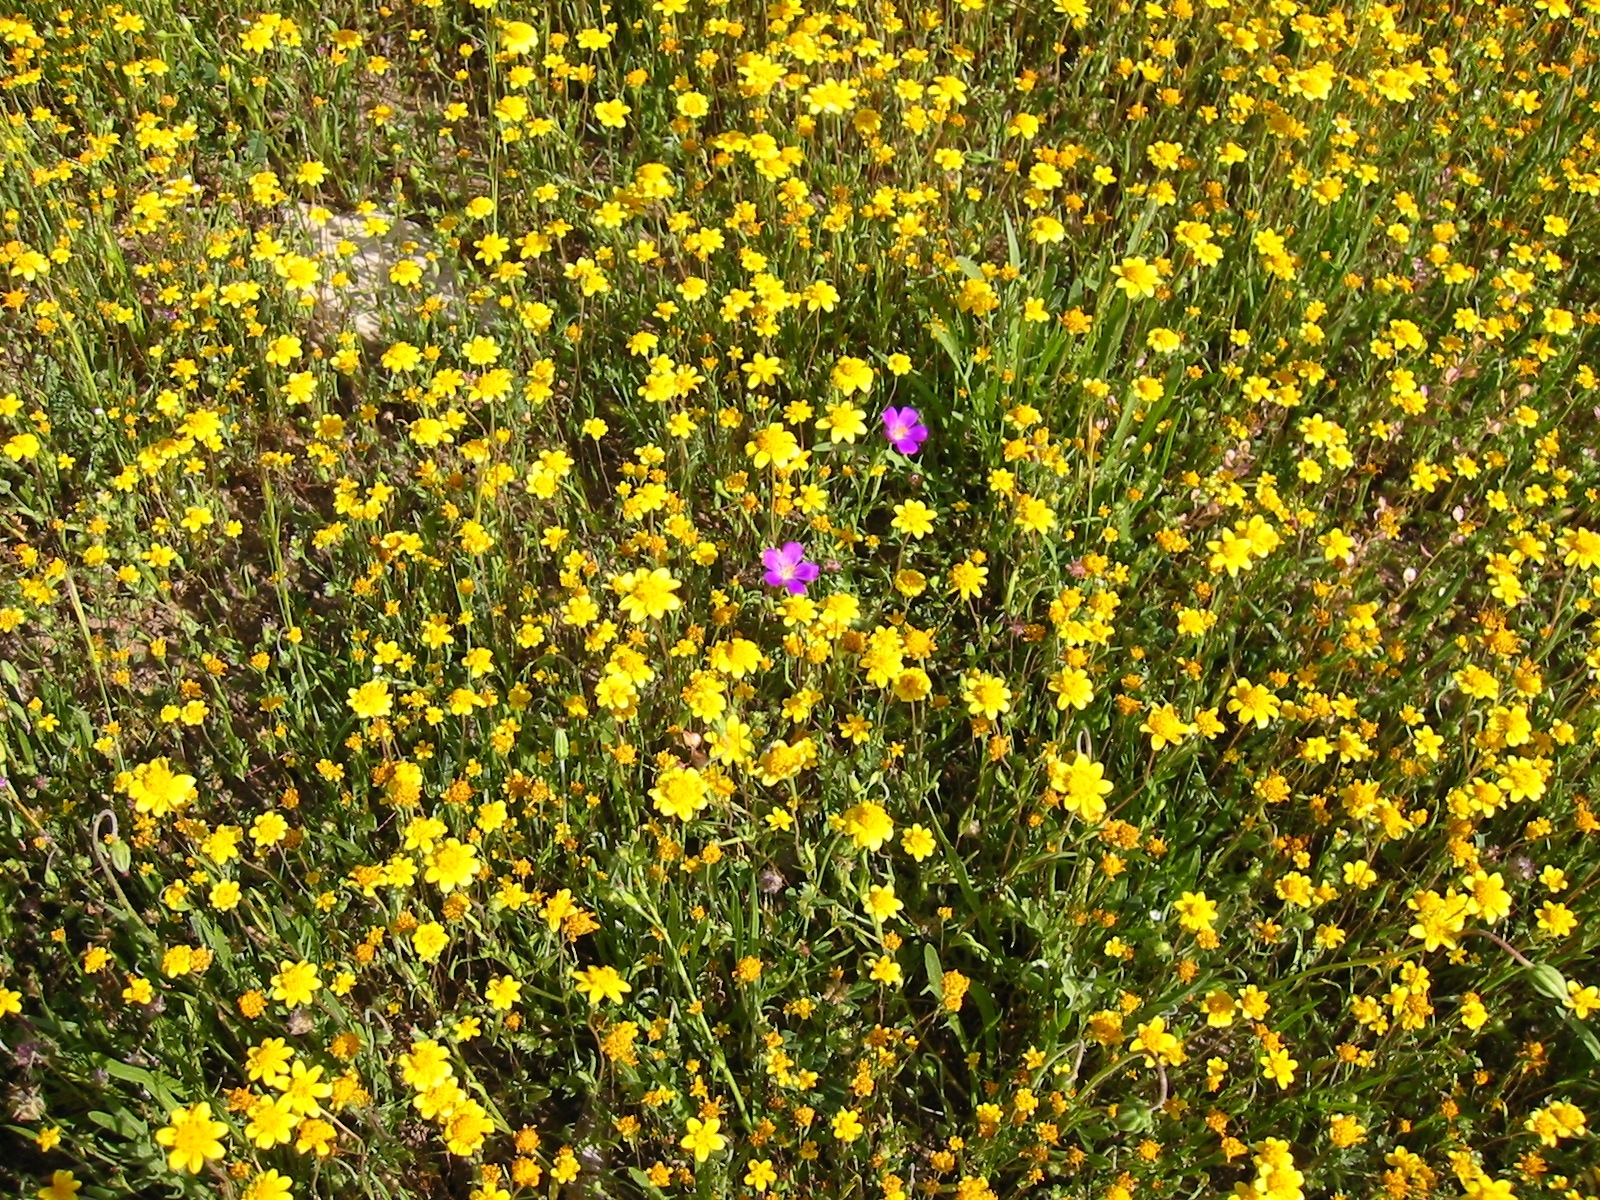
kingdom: Plantae
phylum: Tracheophyta
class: Magnoliopsida
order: Caryophyllales
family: Montiaceae
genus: Calandrinia
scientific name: Calandrinia menziesii
